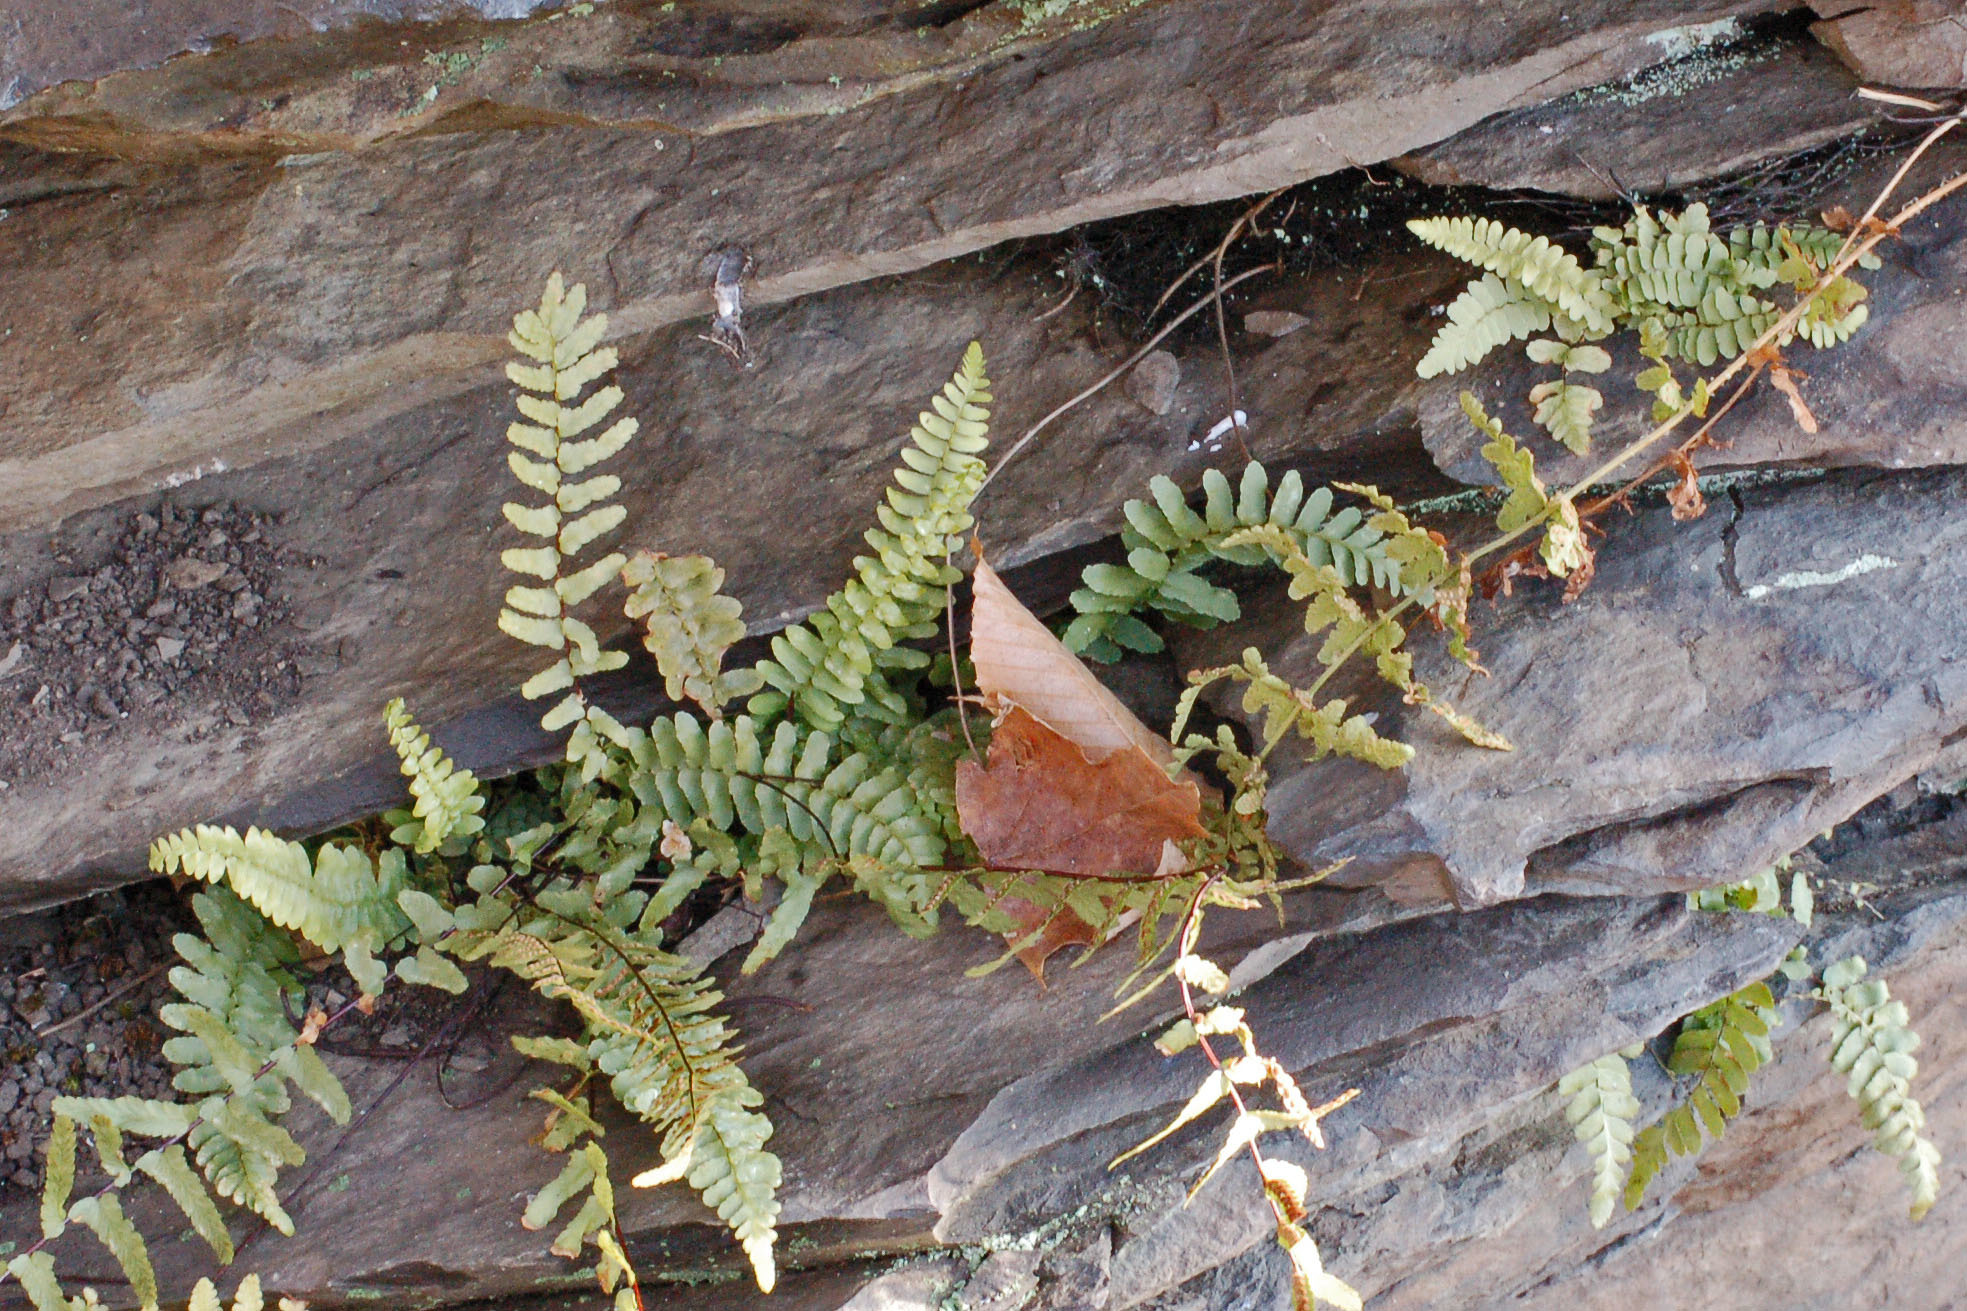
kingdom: Plantae
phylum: Tracheophyta
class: Polypodiopsida
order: Polypodiales
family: Aspleniaceae
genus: Asplenium
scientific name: Asplenium platyneuron
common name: Ebony spleenwort
